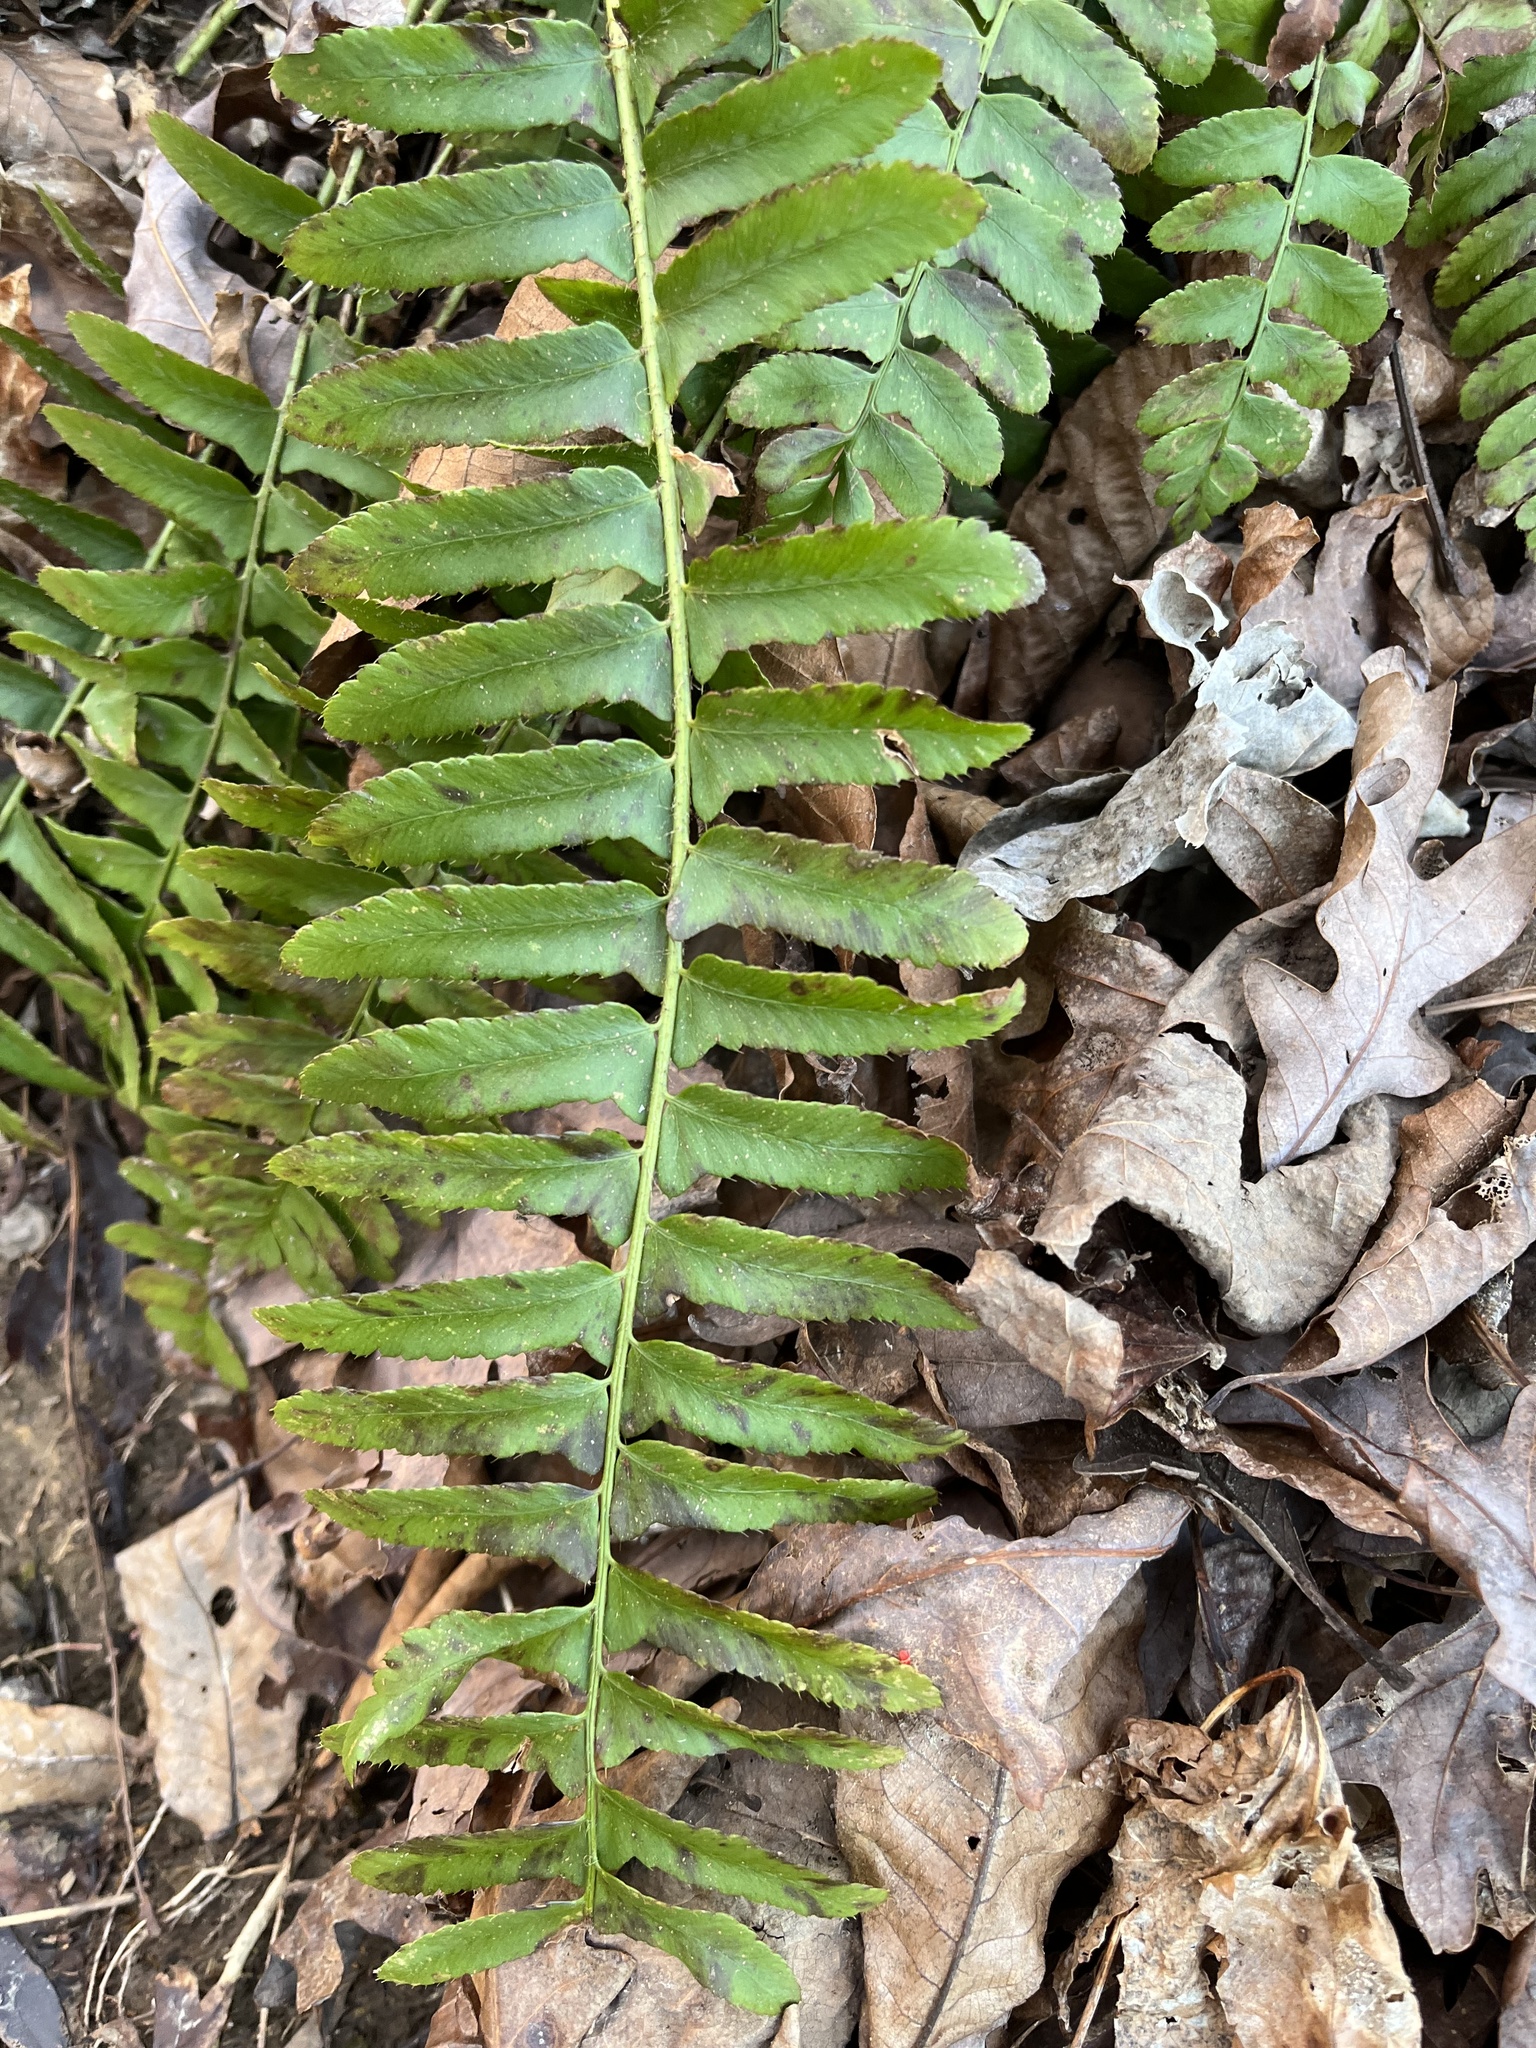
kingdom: Plantae
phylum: Tracheophyta
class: Polypodiopsida
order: Polypodiales
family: Dryopteridaceae
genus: Polystichum
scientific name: Polystichum acrostichoides
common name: Christmas fern
